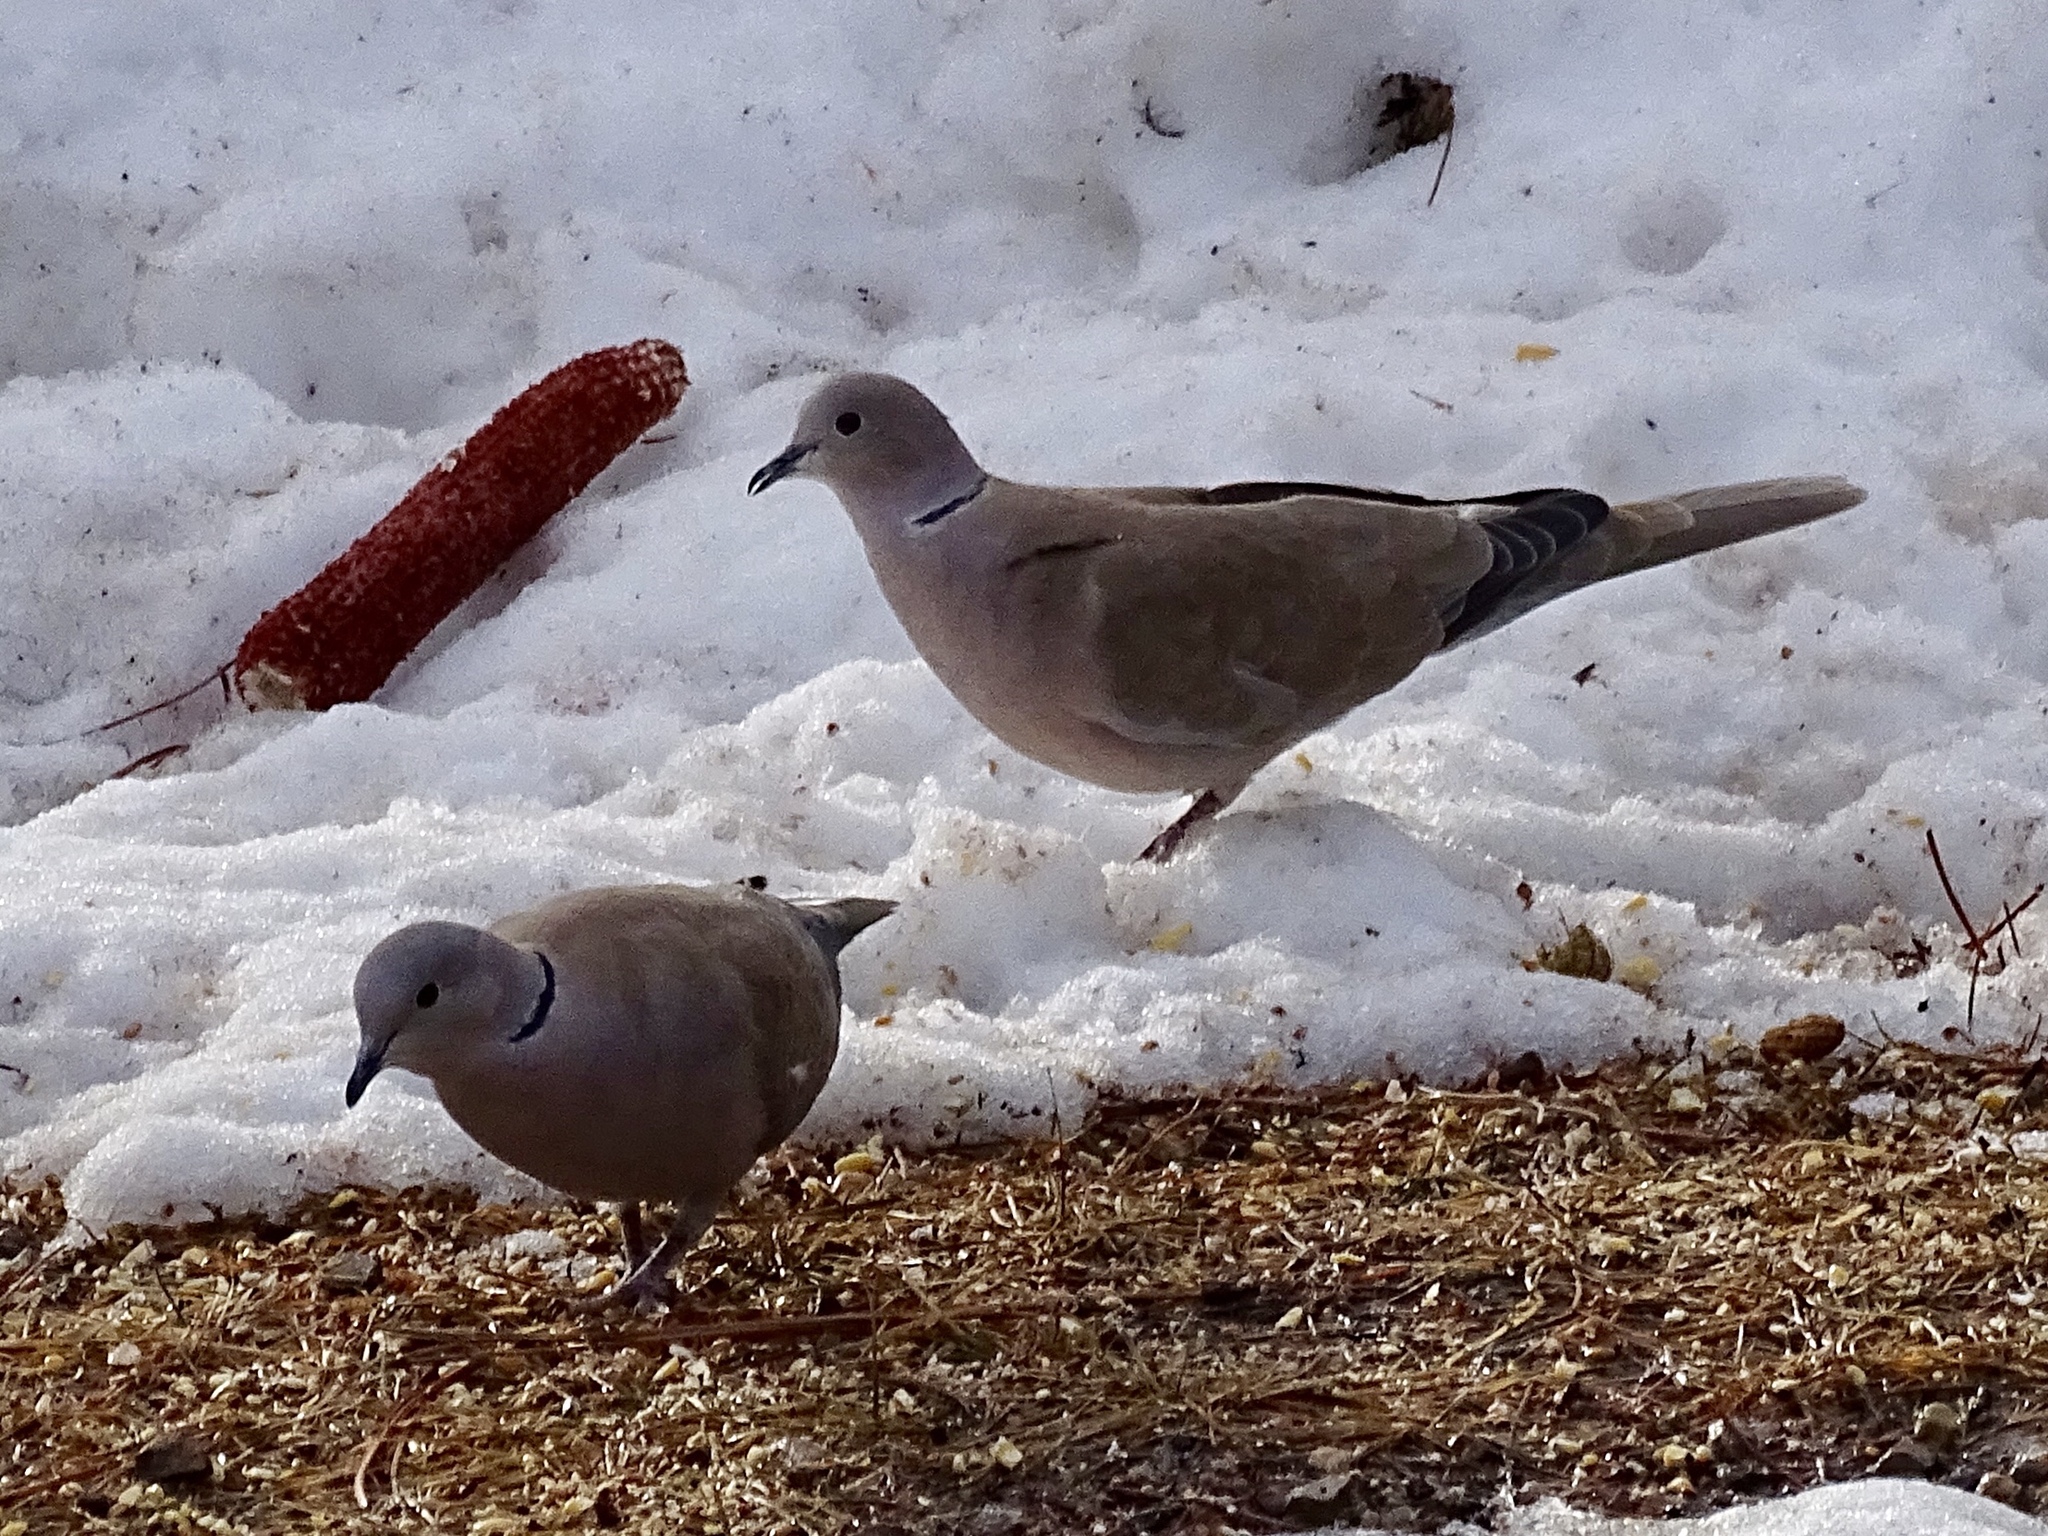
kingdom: Animalia
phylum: Chordata
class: Aves
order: Columbiformes
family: Columbidae
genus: Streptopelia
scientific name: Streptopelia decaocto
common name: Eurasian collared dove
